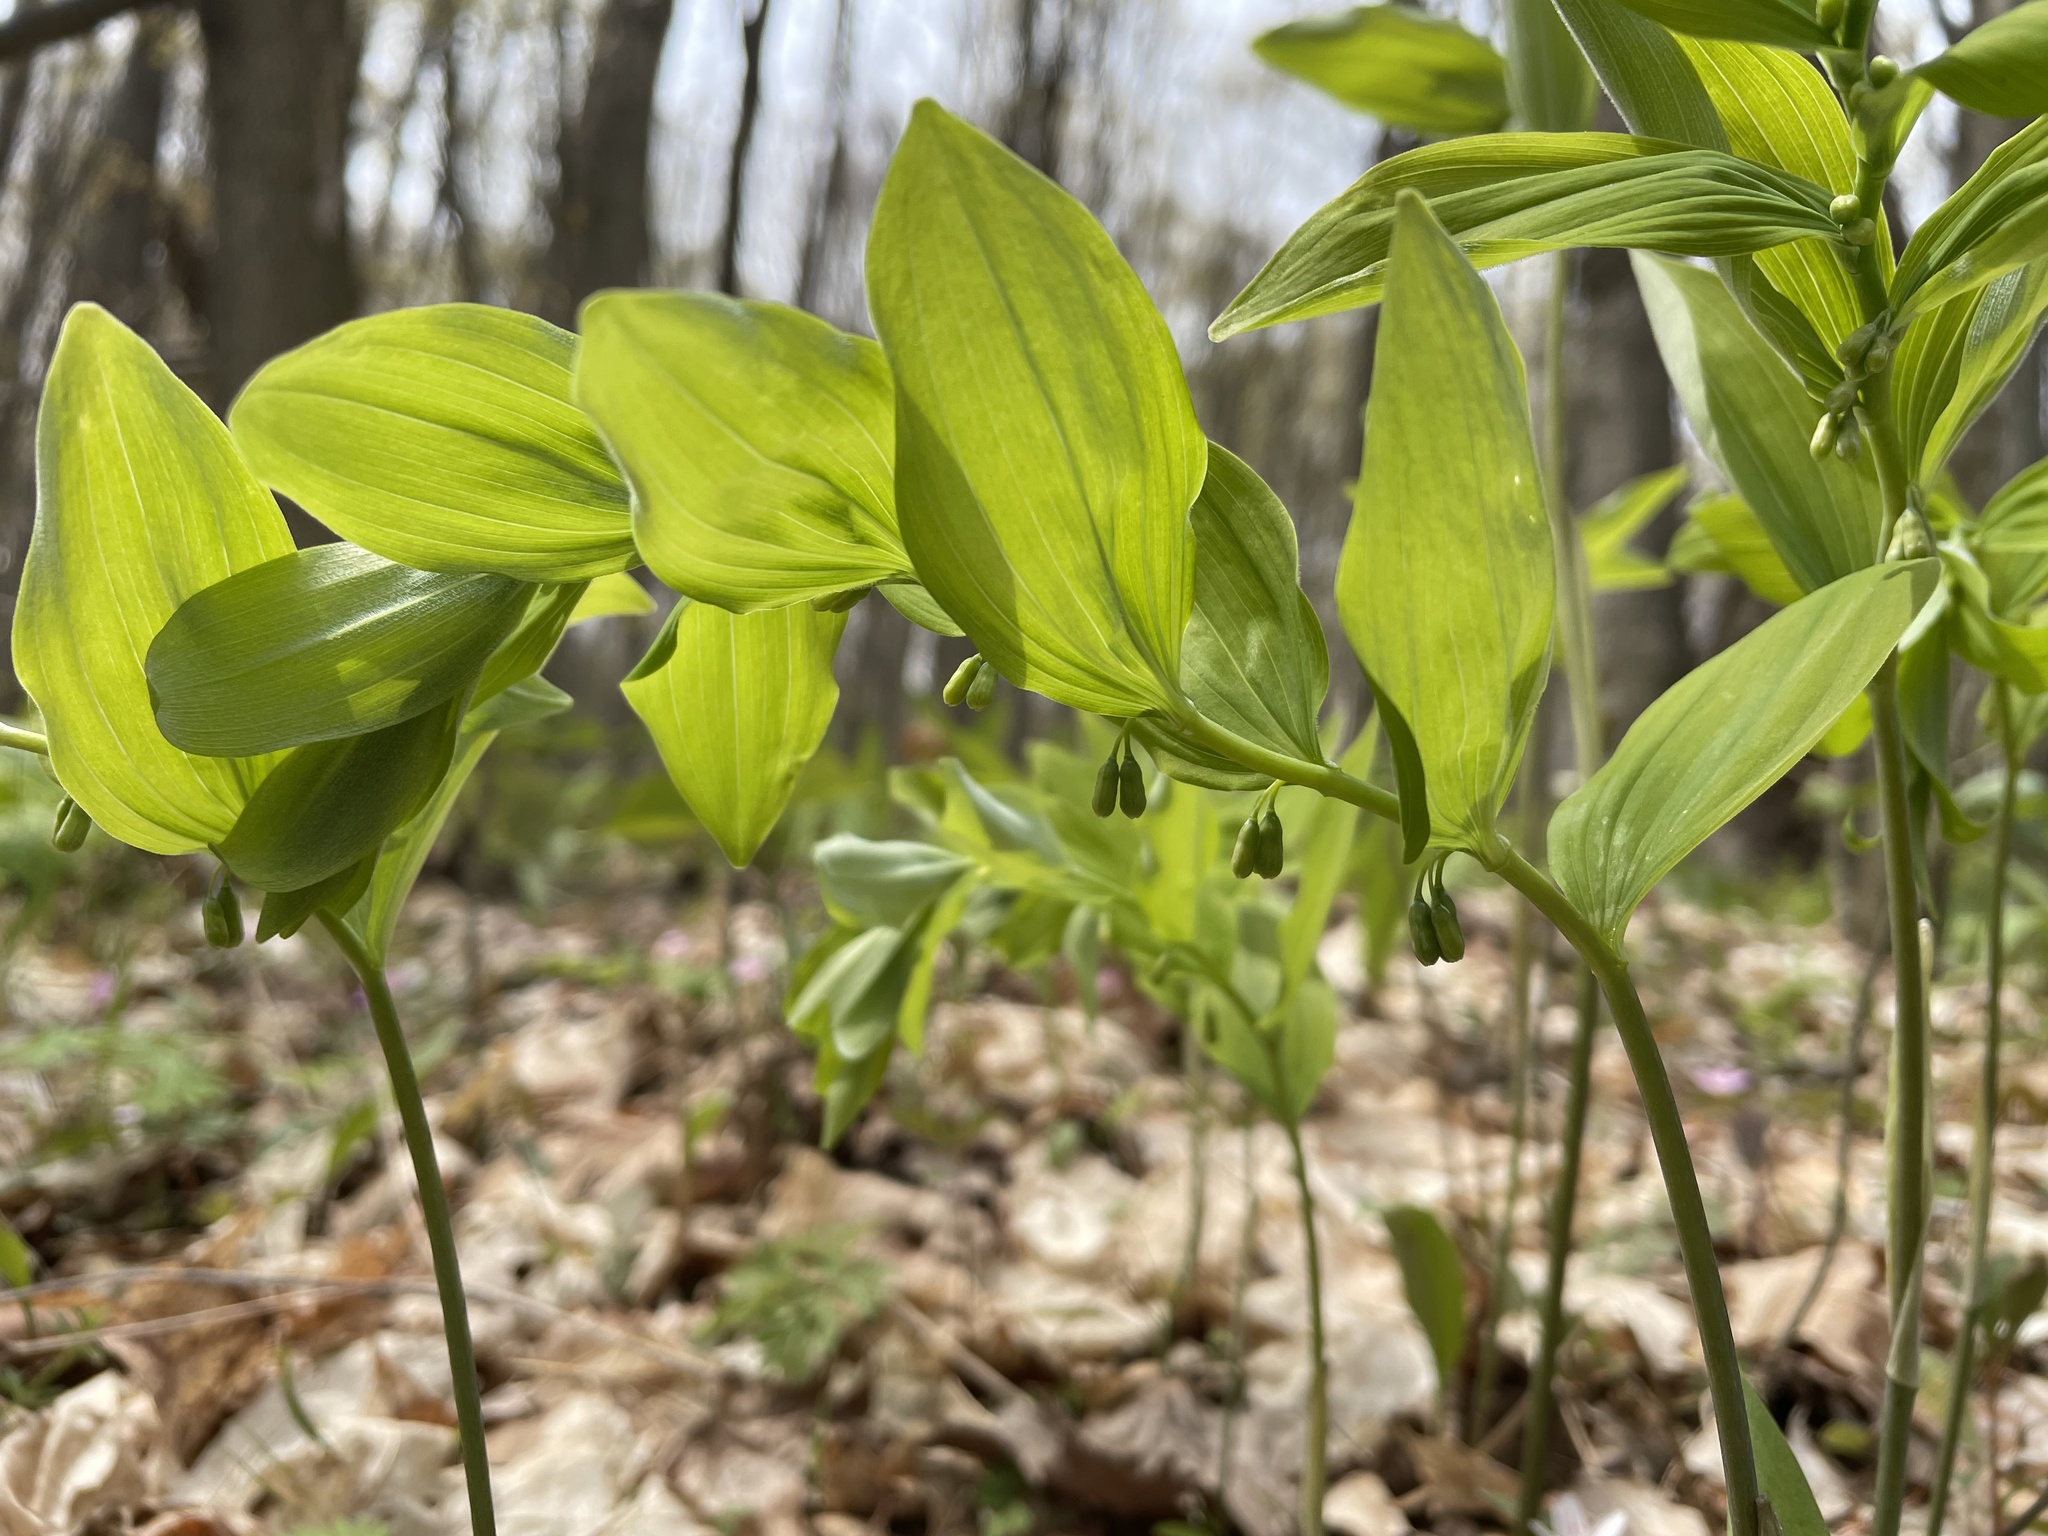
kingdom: Plantae
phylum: Tracheophyta
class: Liliopsida
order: Asparagales
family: Asparagaceae
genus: Polygonatum
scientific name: Polygonatum pubescens
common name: Downy solomon's seal
